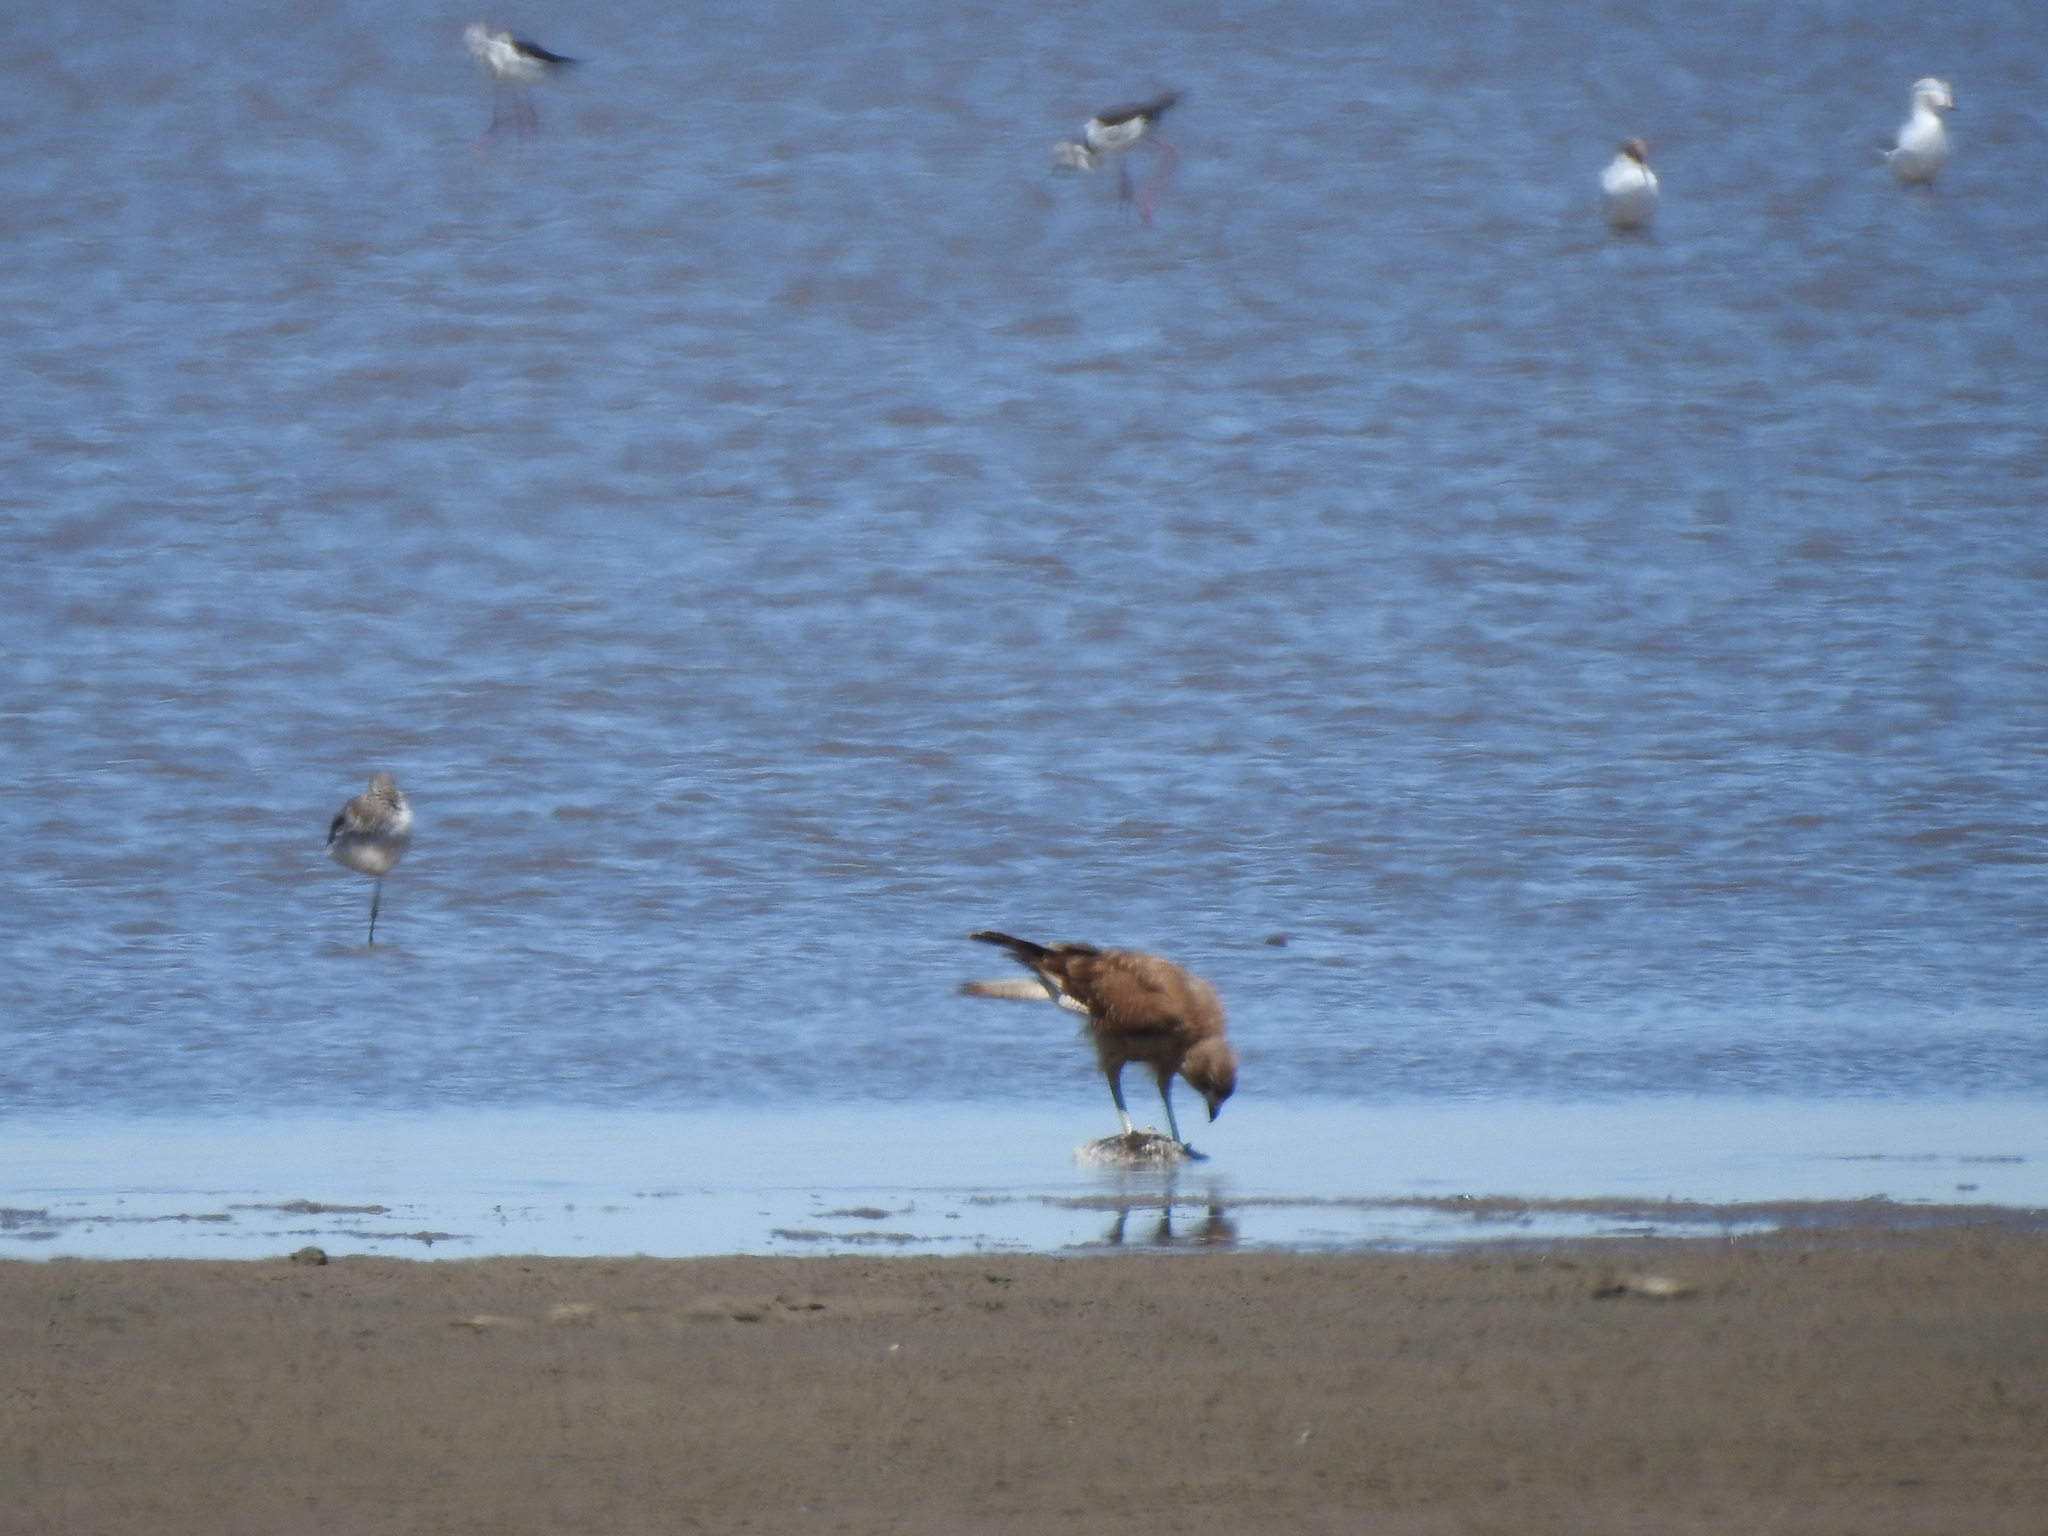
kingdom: Animalia
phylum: Chordata
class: Aves
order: Falconiformes
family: Falconidae
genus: Daptrius
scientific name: Daptrius
